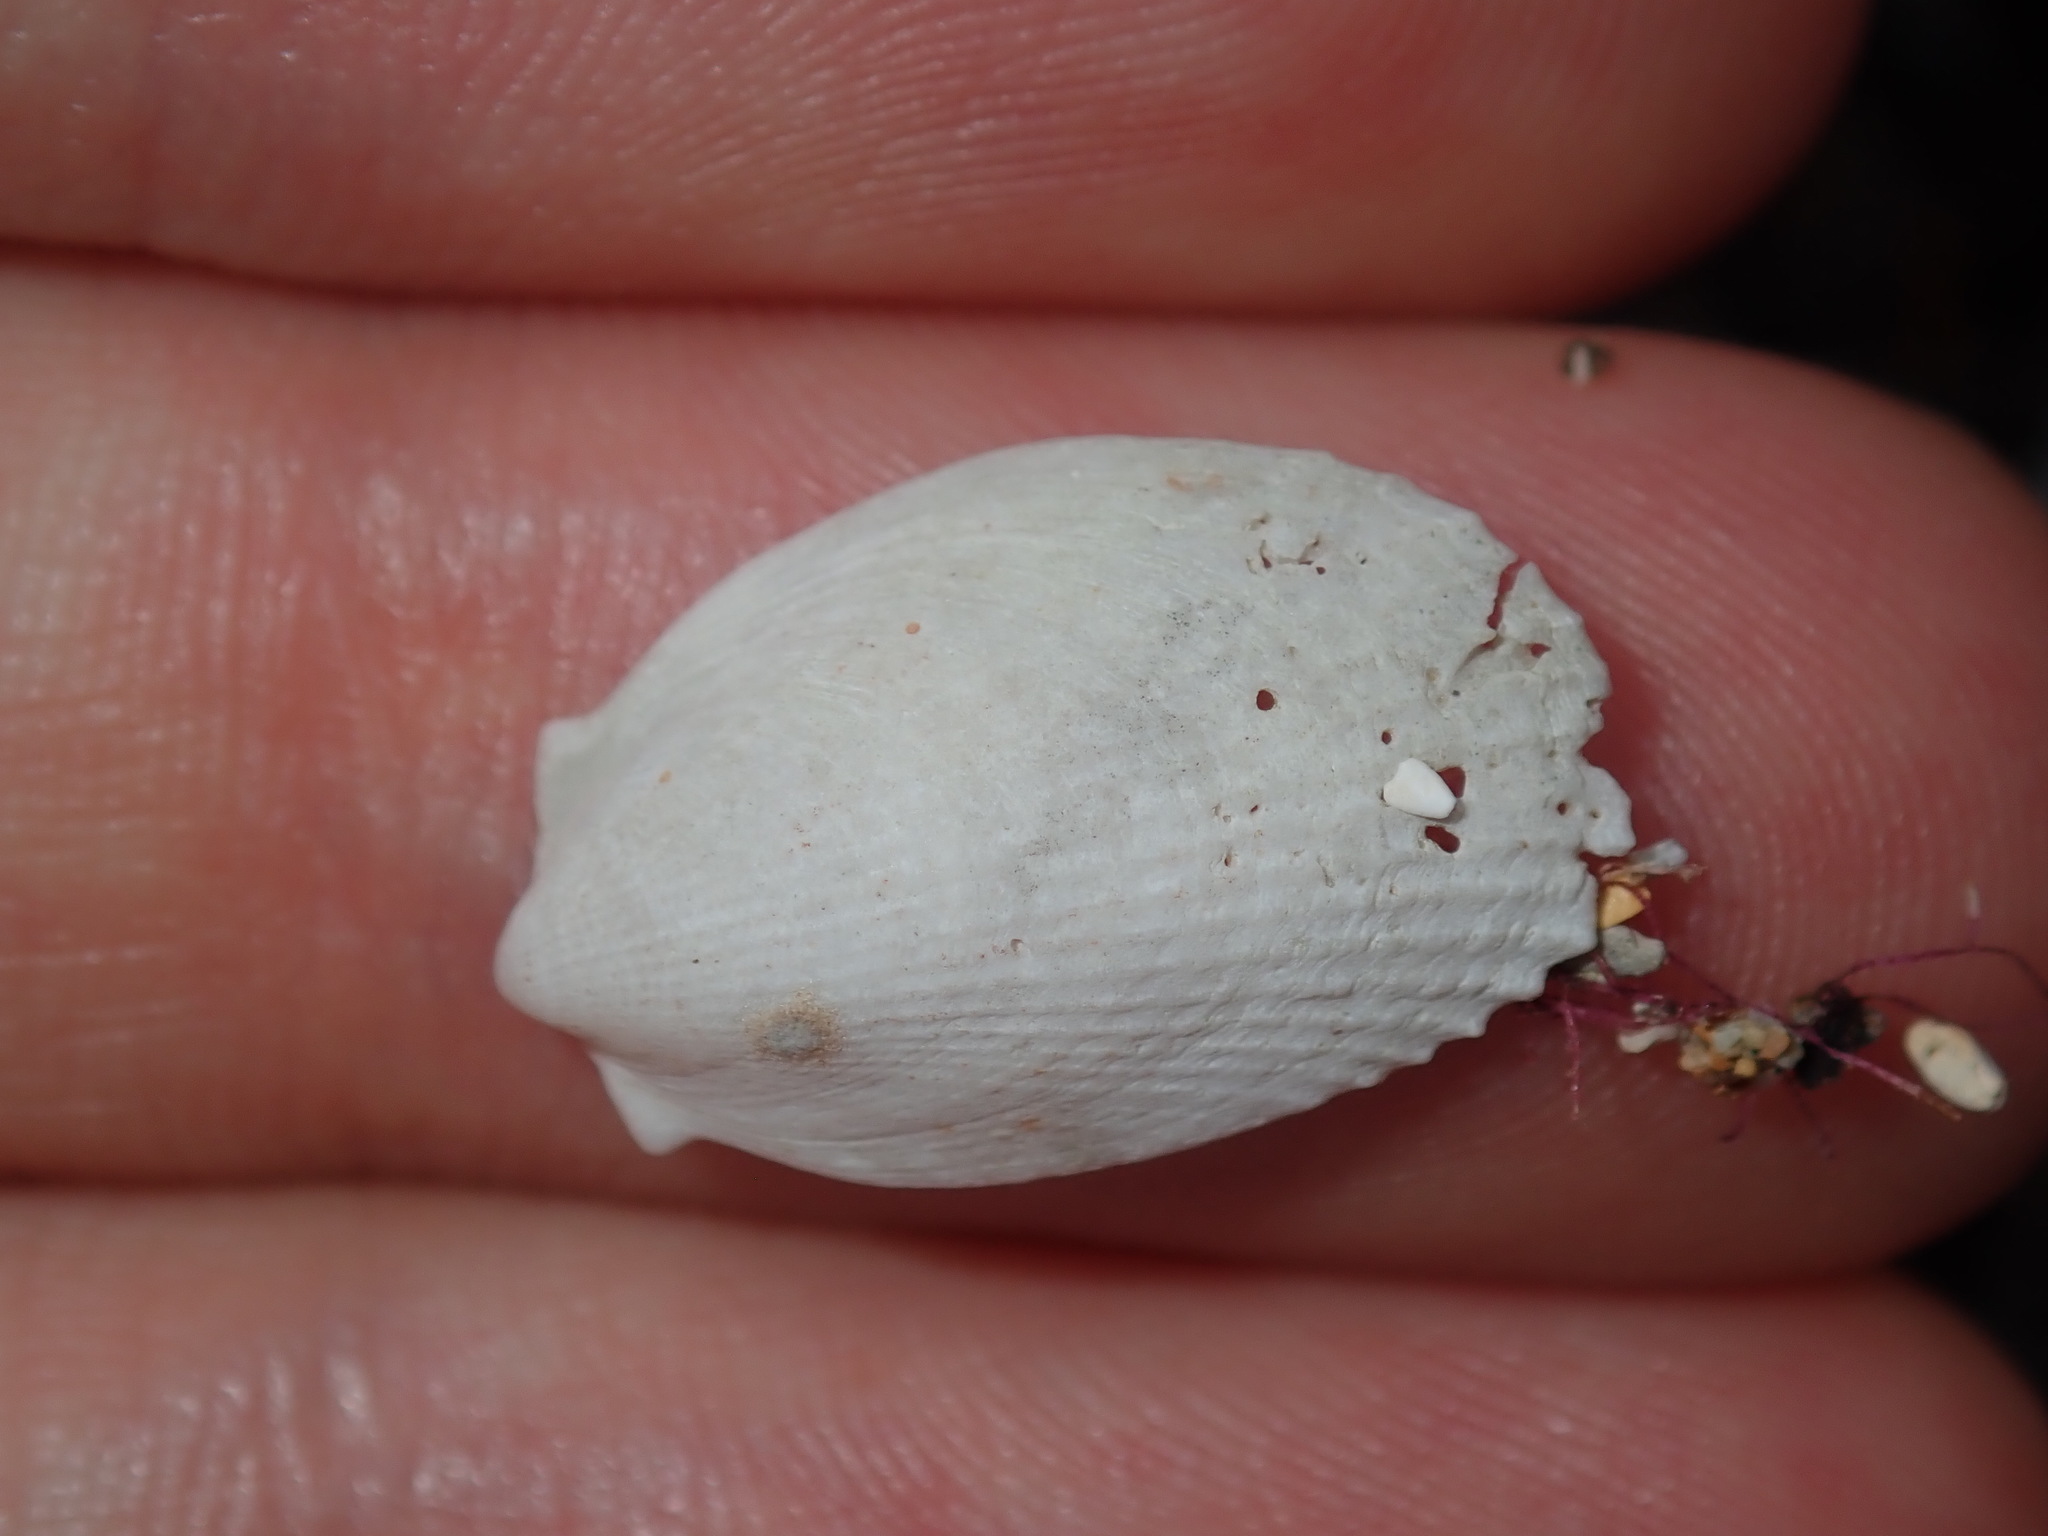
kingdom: Animalia
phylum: Mollusca
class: Bivalvia
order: Limida
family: Limidae
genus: Limatula
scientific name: Limatula strangei
